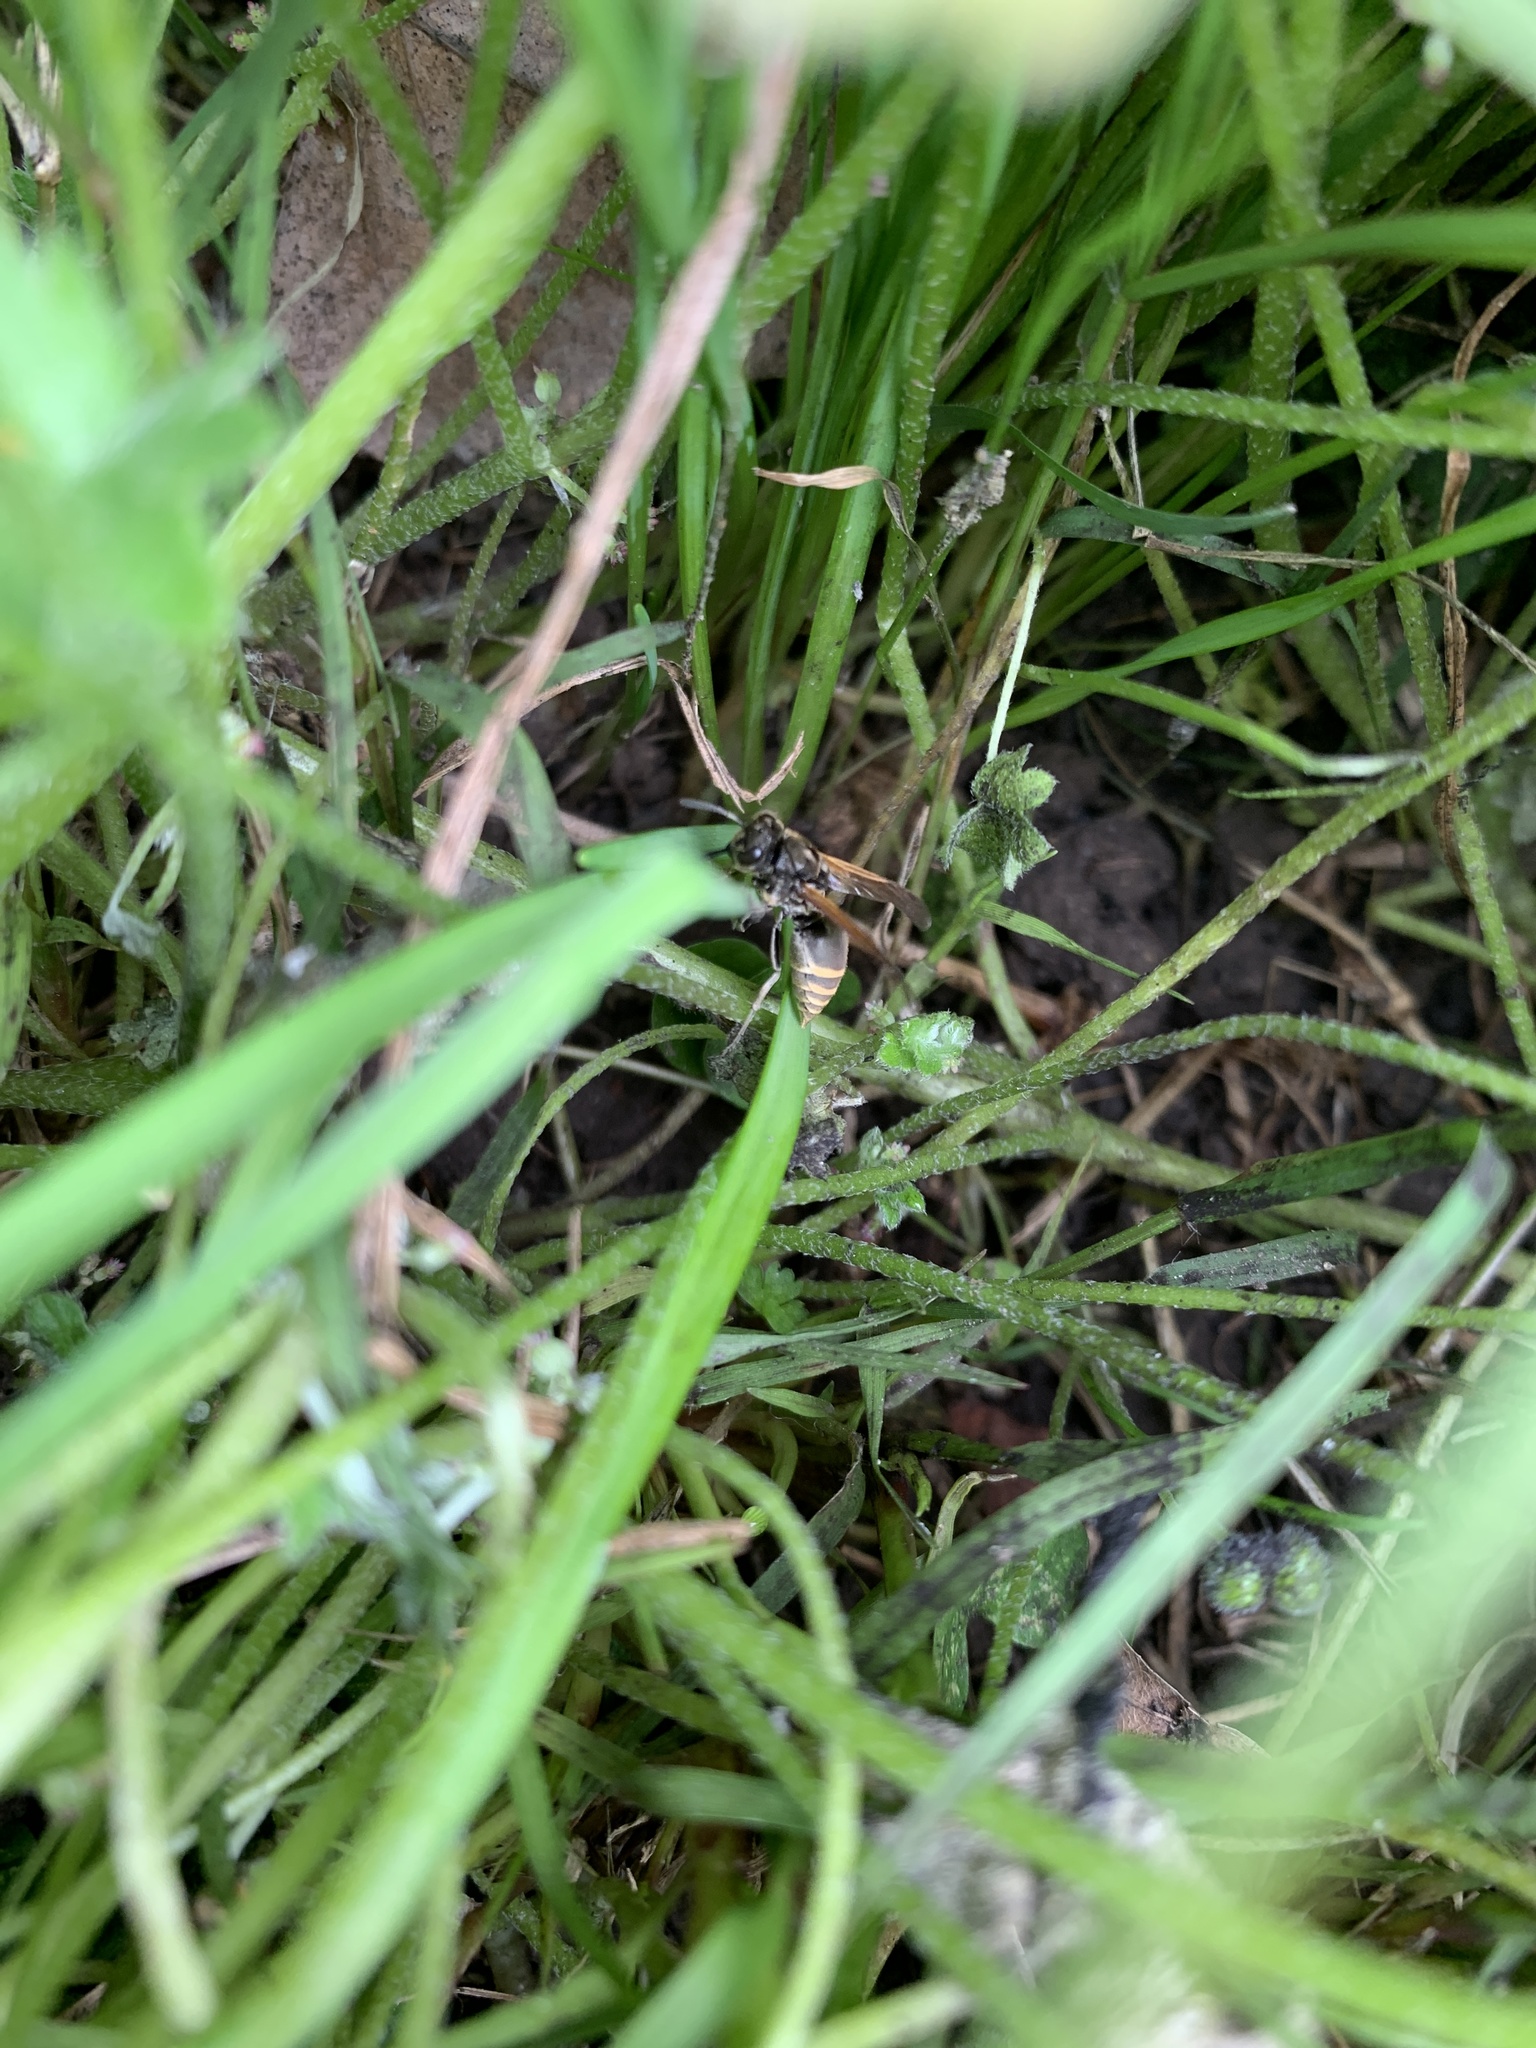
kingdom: Animalia
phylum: Arthropoda
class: Insecta
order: Hymenoptera
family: Vespidae
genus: Brachygastra
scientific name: Brachygastra lecheguana
